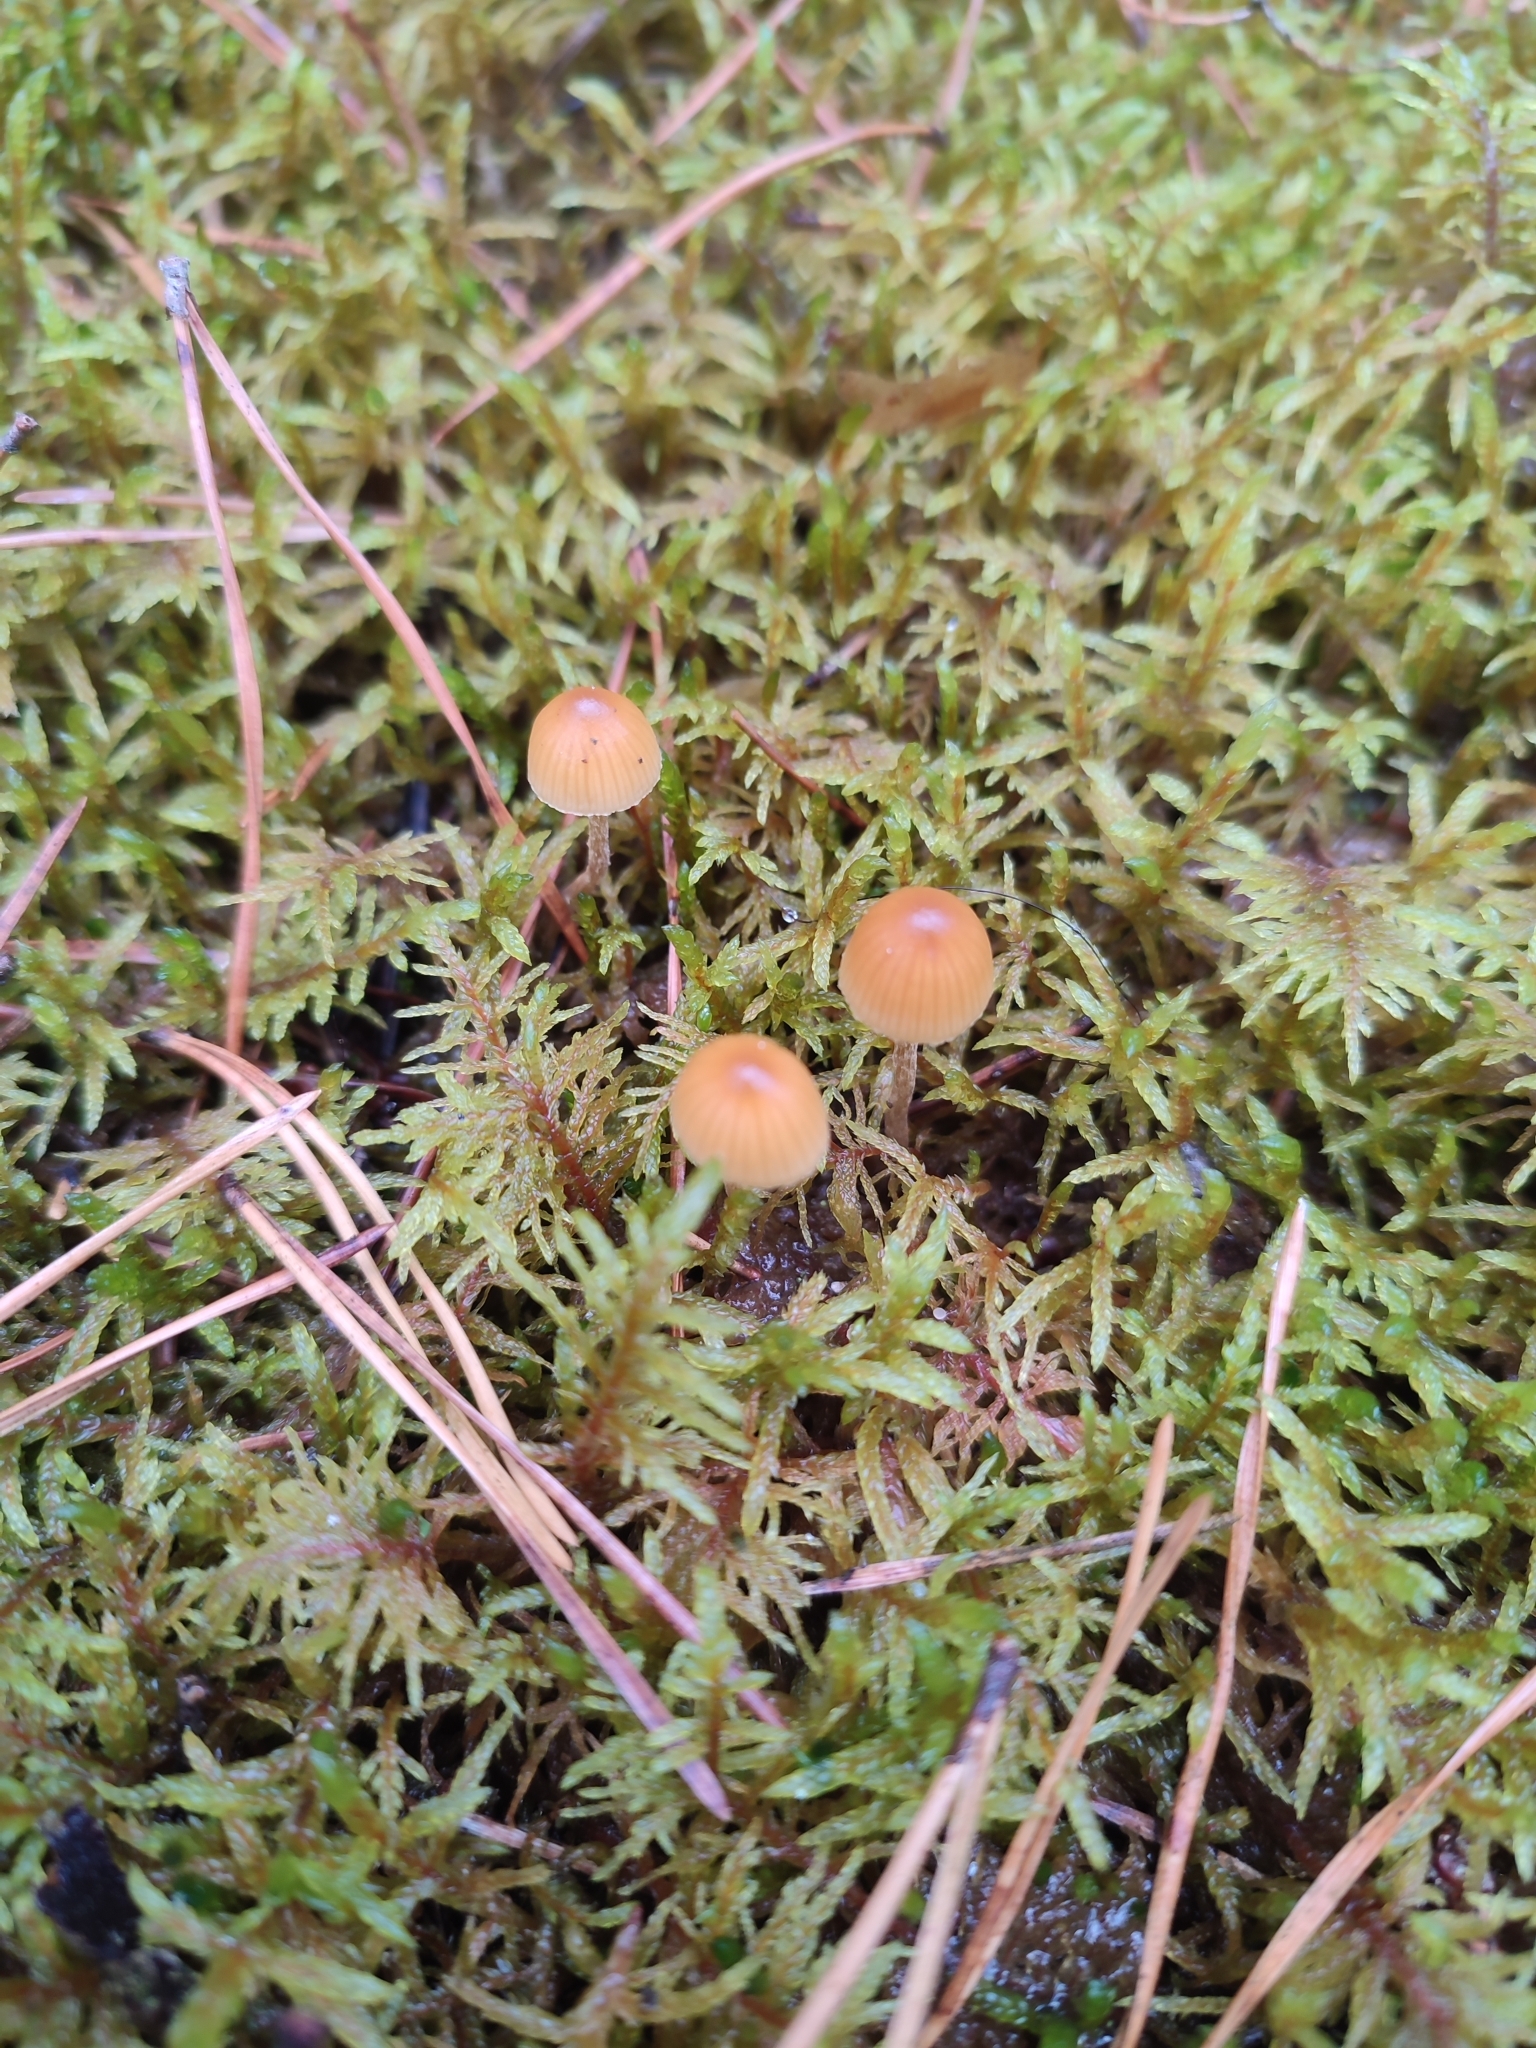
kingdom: Fungi
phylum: Basidiomycota
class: Agaricomycetes
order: Hymenochaetales
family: Rickenellaceae
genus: Rickenella
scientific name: Rickenella fibula
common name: Orange mosscap
